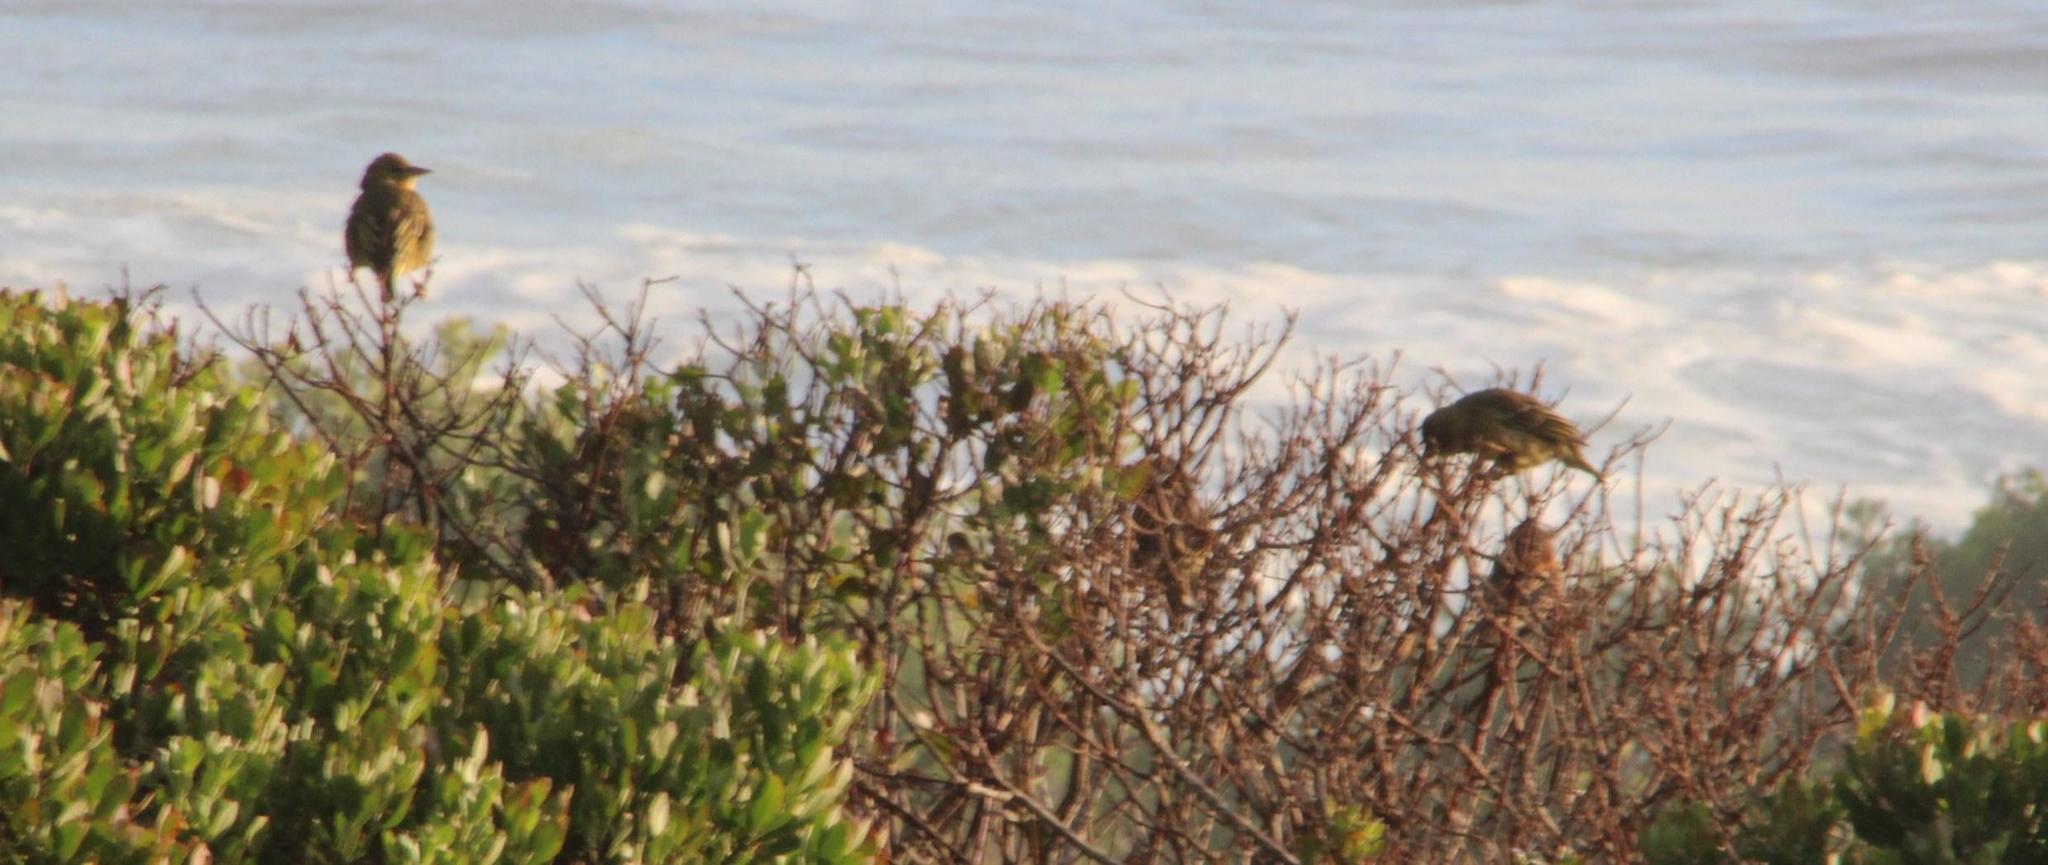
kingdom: Animalia
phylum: Chordata
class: Aves
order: Passeriformes
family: Ploceidae
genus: Ploceus
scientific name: Ploceus capensis
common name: Cape weaver
